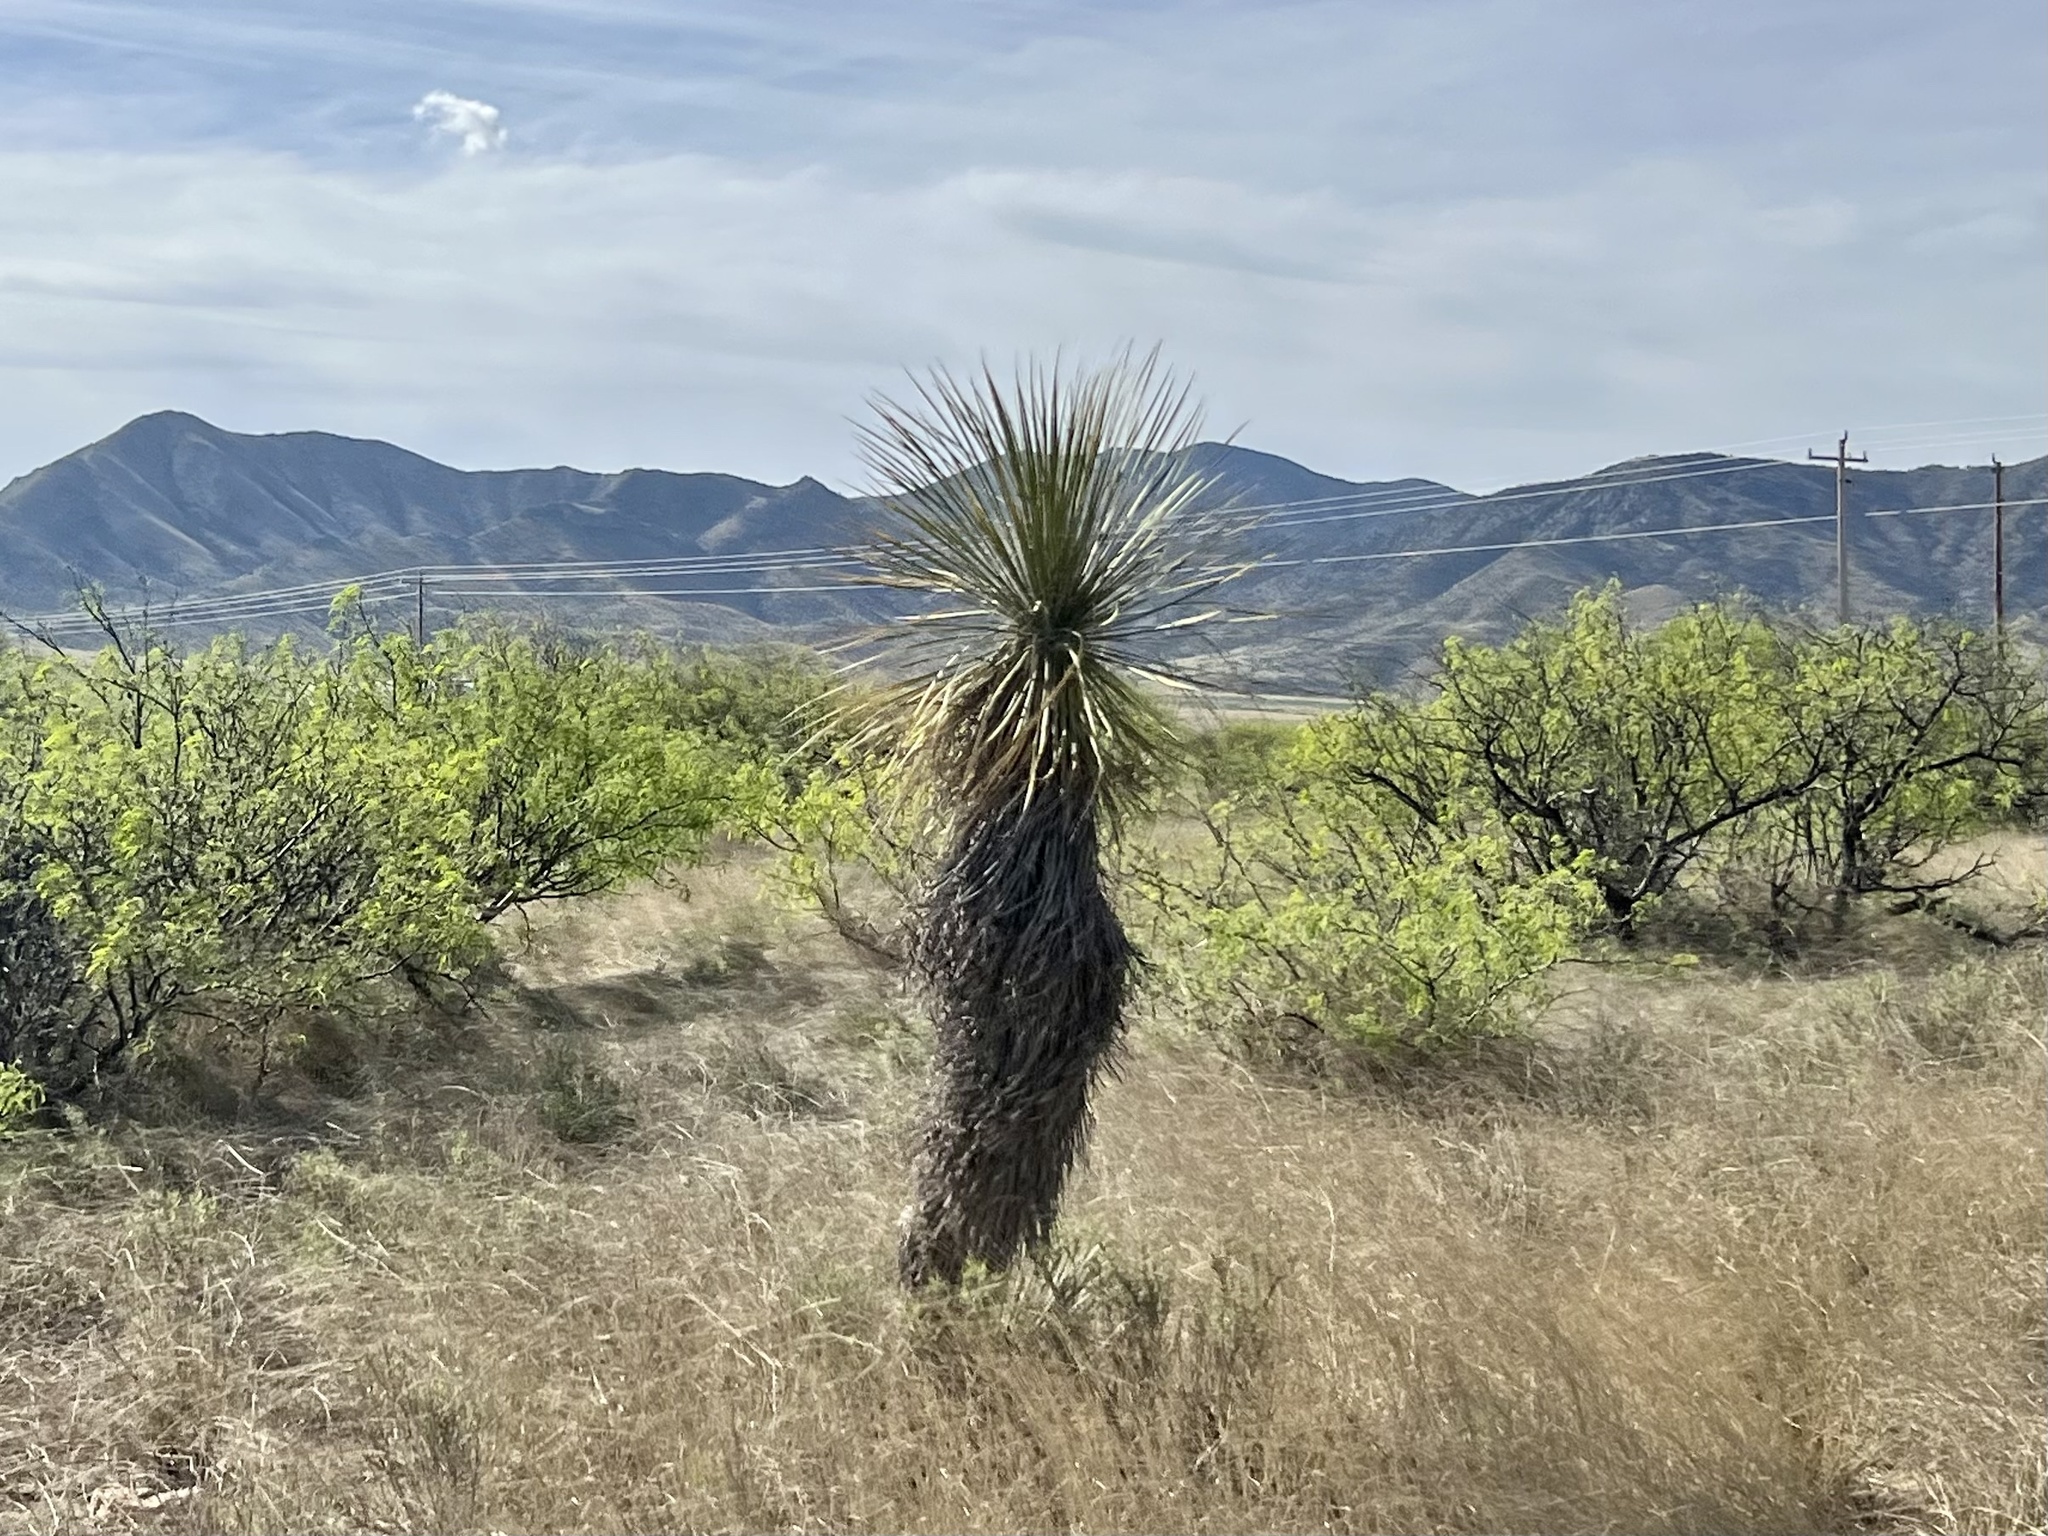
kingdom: Plantae
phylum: Tracheophyta
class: Liliopsida
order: Asparagales
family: Asparagaceae
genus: Yucca
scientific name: Yucca elata
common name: Palmella
